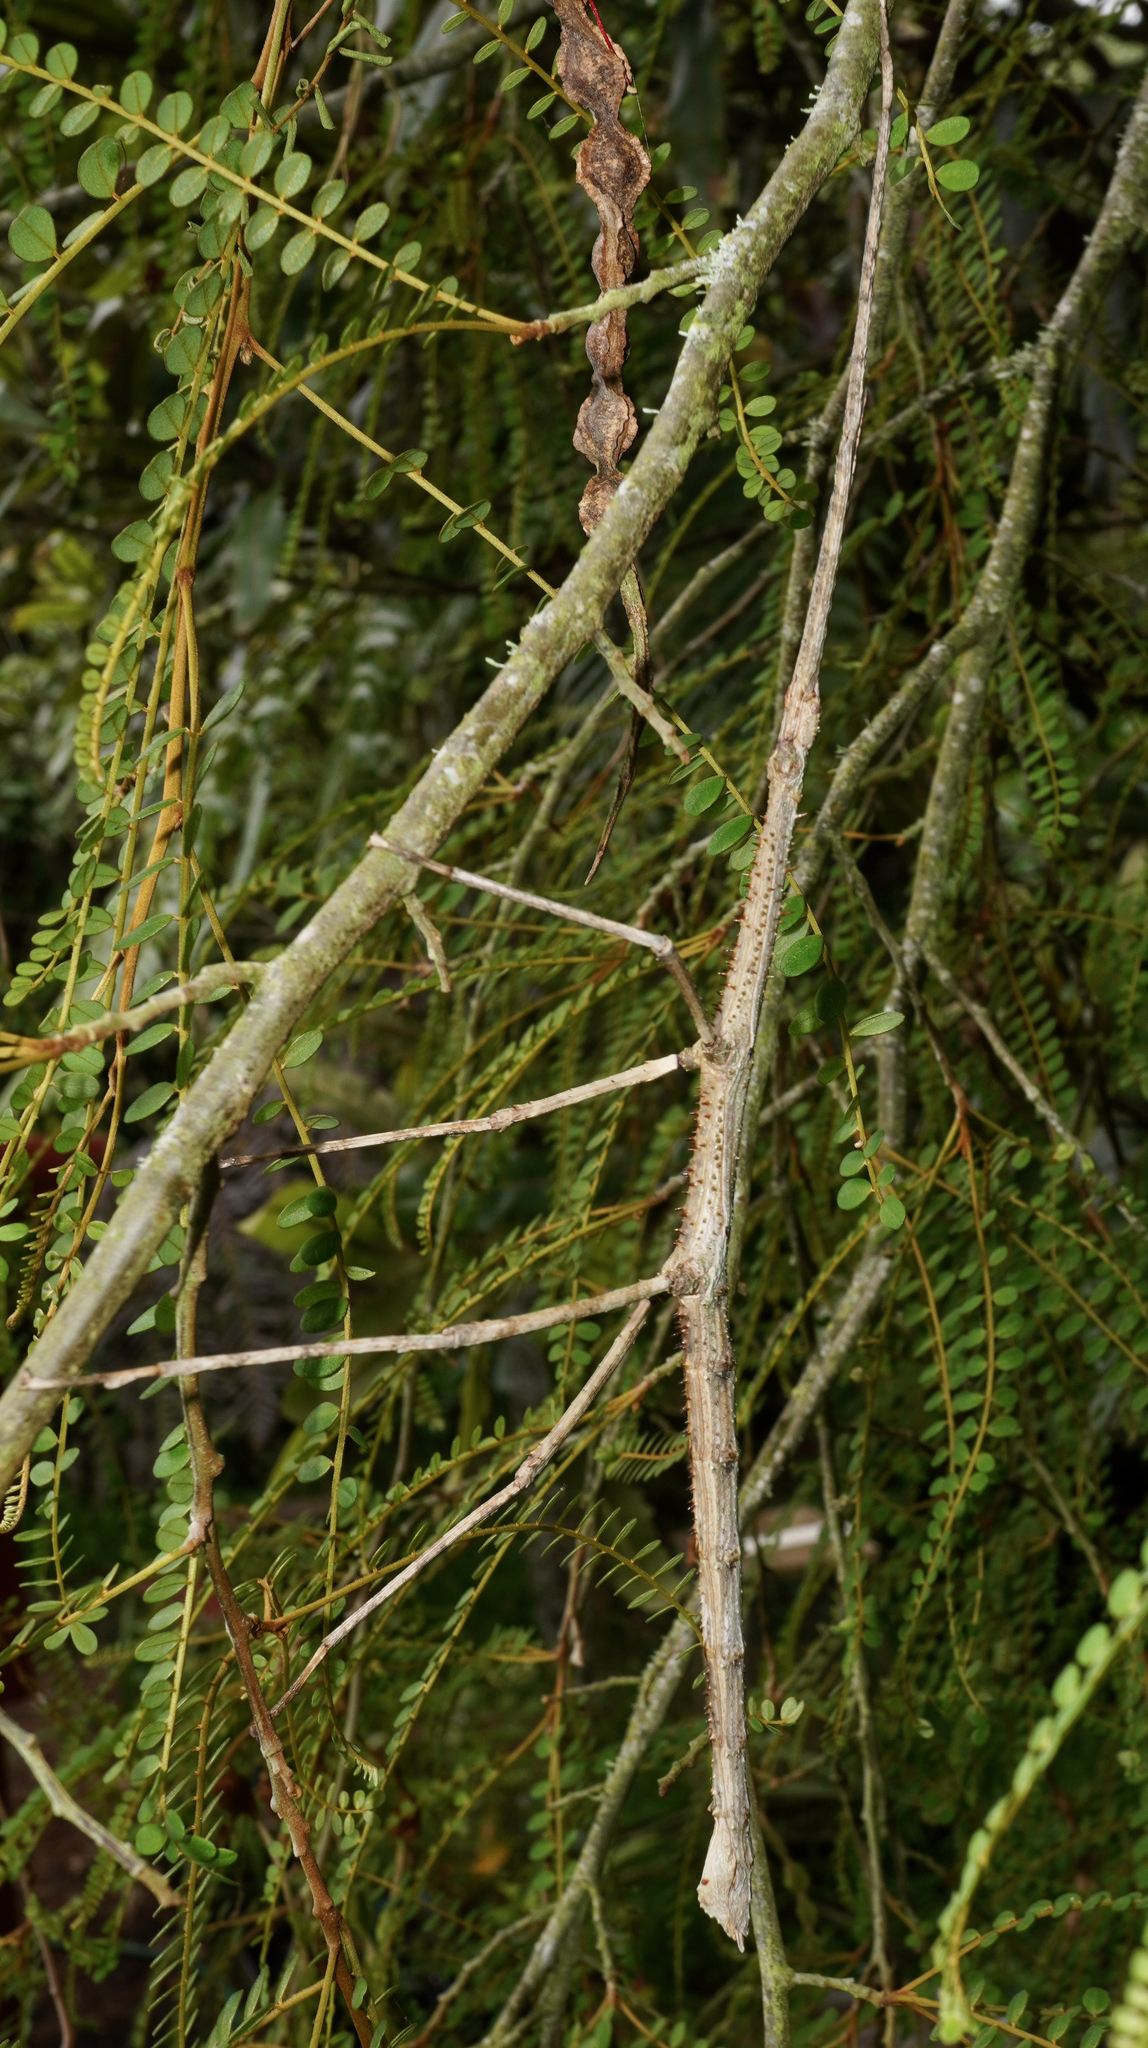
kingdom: Animalia
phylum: Arthropoda
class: Insecta
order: Phasmida
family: Phasmatidae
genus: Argosarchus
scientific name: Argosarchus horridus
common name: Bristly stick insect
